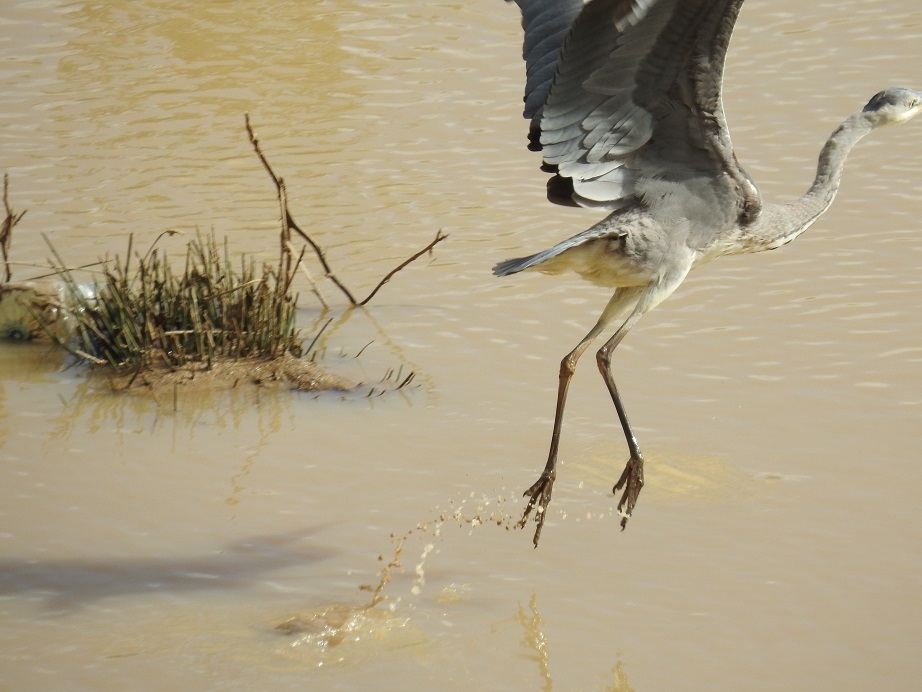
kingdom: Animalia
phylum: Chordata
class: Aves
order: Pelecaniformes
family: Ardeidae
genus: Ardea
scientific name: Ardea cinerea
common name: Grey heron
